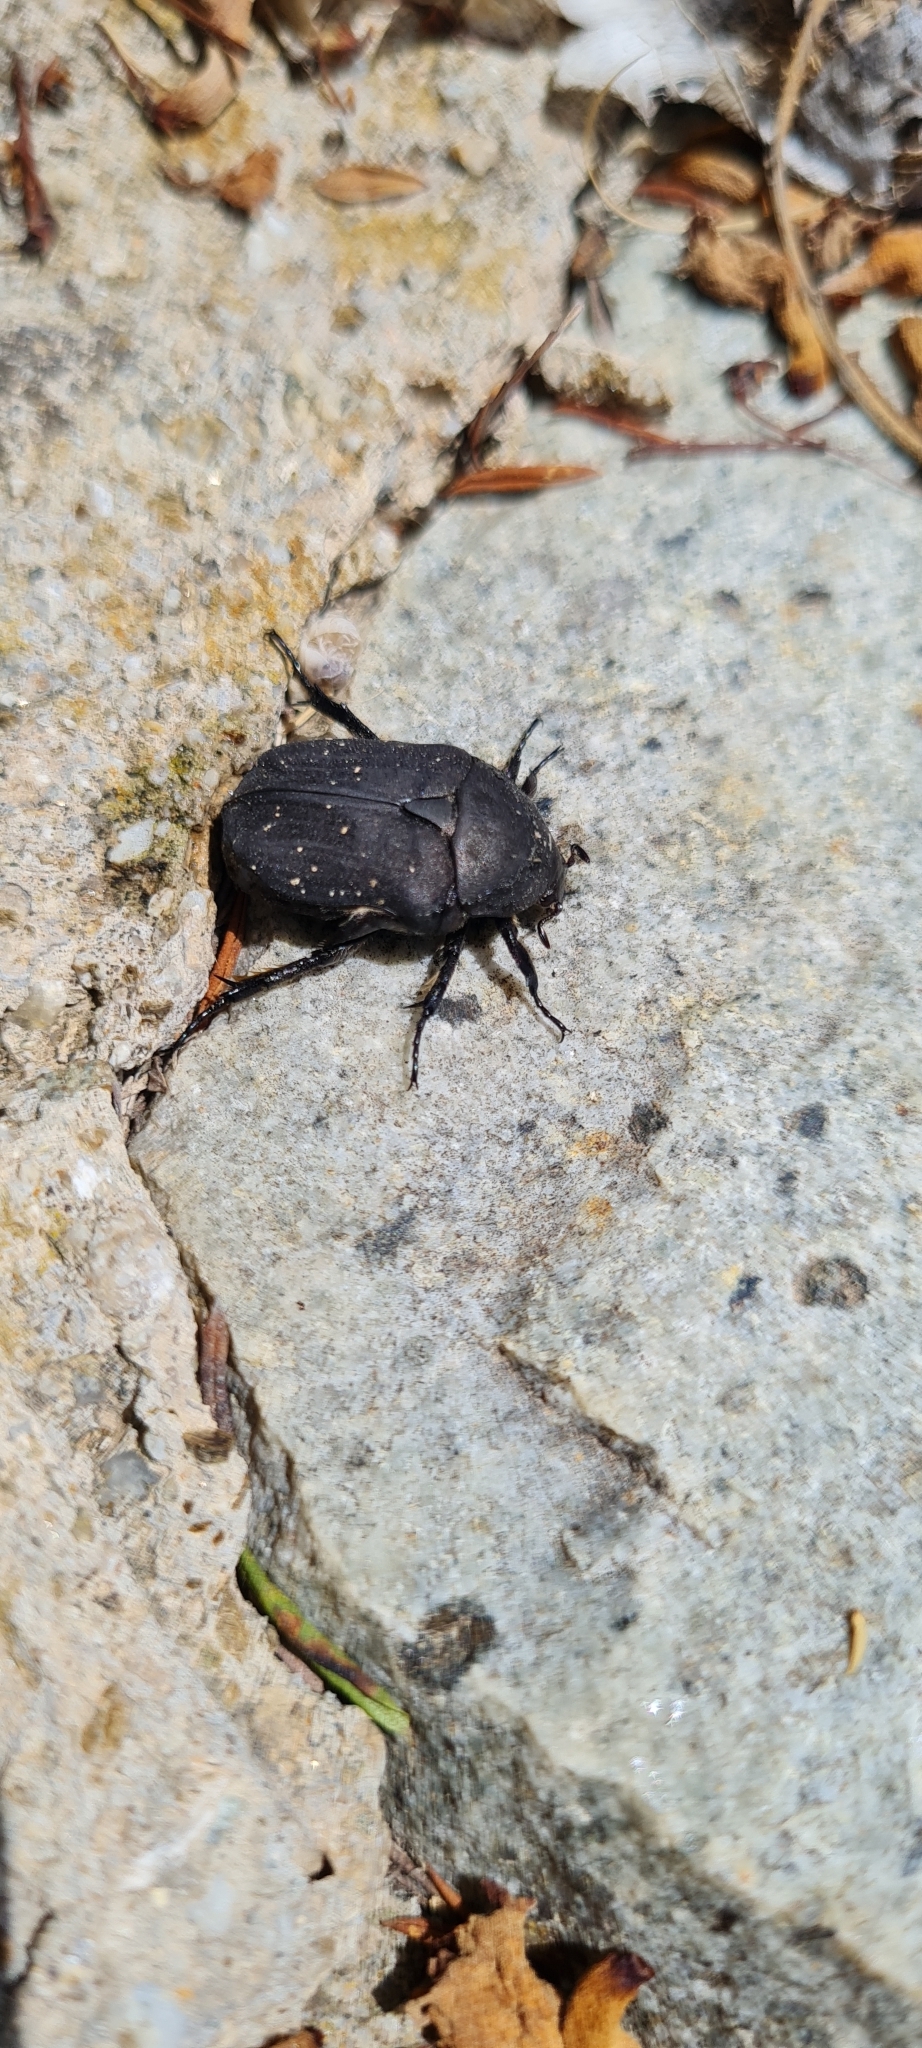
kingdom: Animalia
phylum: Arthropoda
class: Insecta
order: Coleoptera
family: Scarabaeidae
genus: Protaetia
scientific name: Protaetia morio
